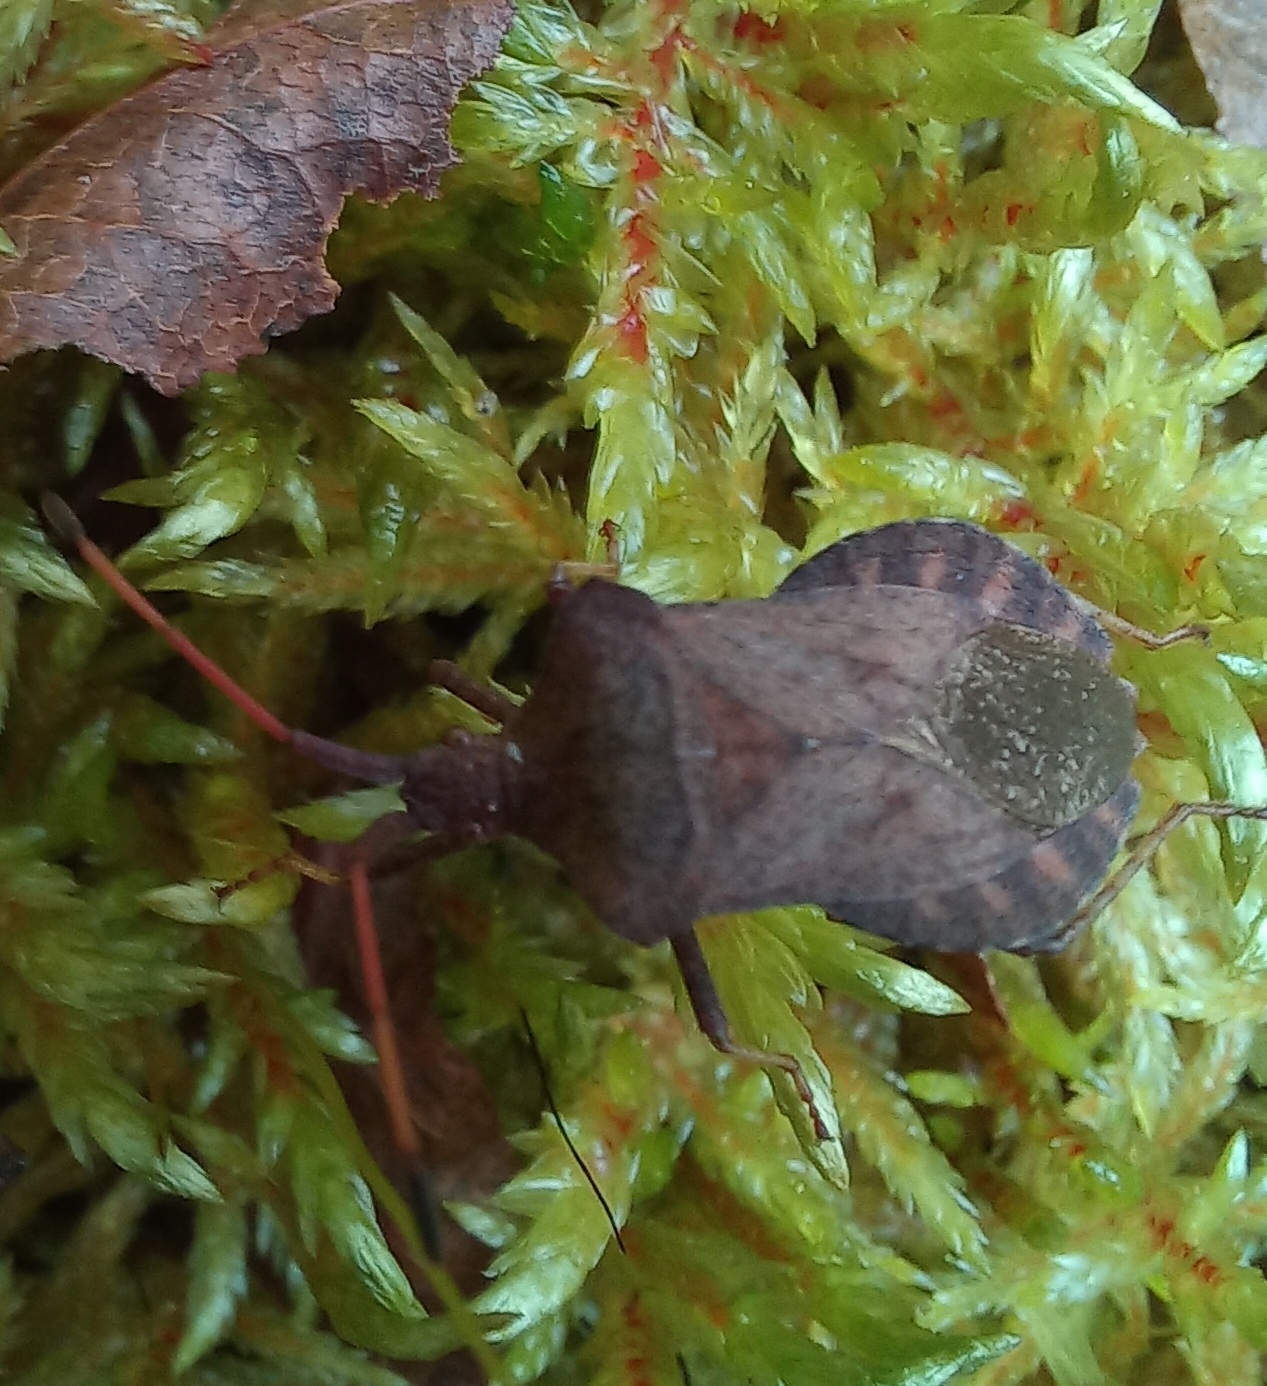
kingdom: Animalia
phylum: Arthropoda
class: Insecta
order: Hemiptera
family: Coreidae
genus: Coreus
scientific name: Coreus marginatus
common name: Dock bug
